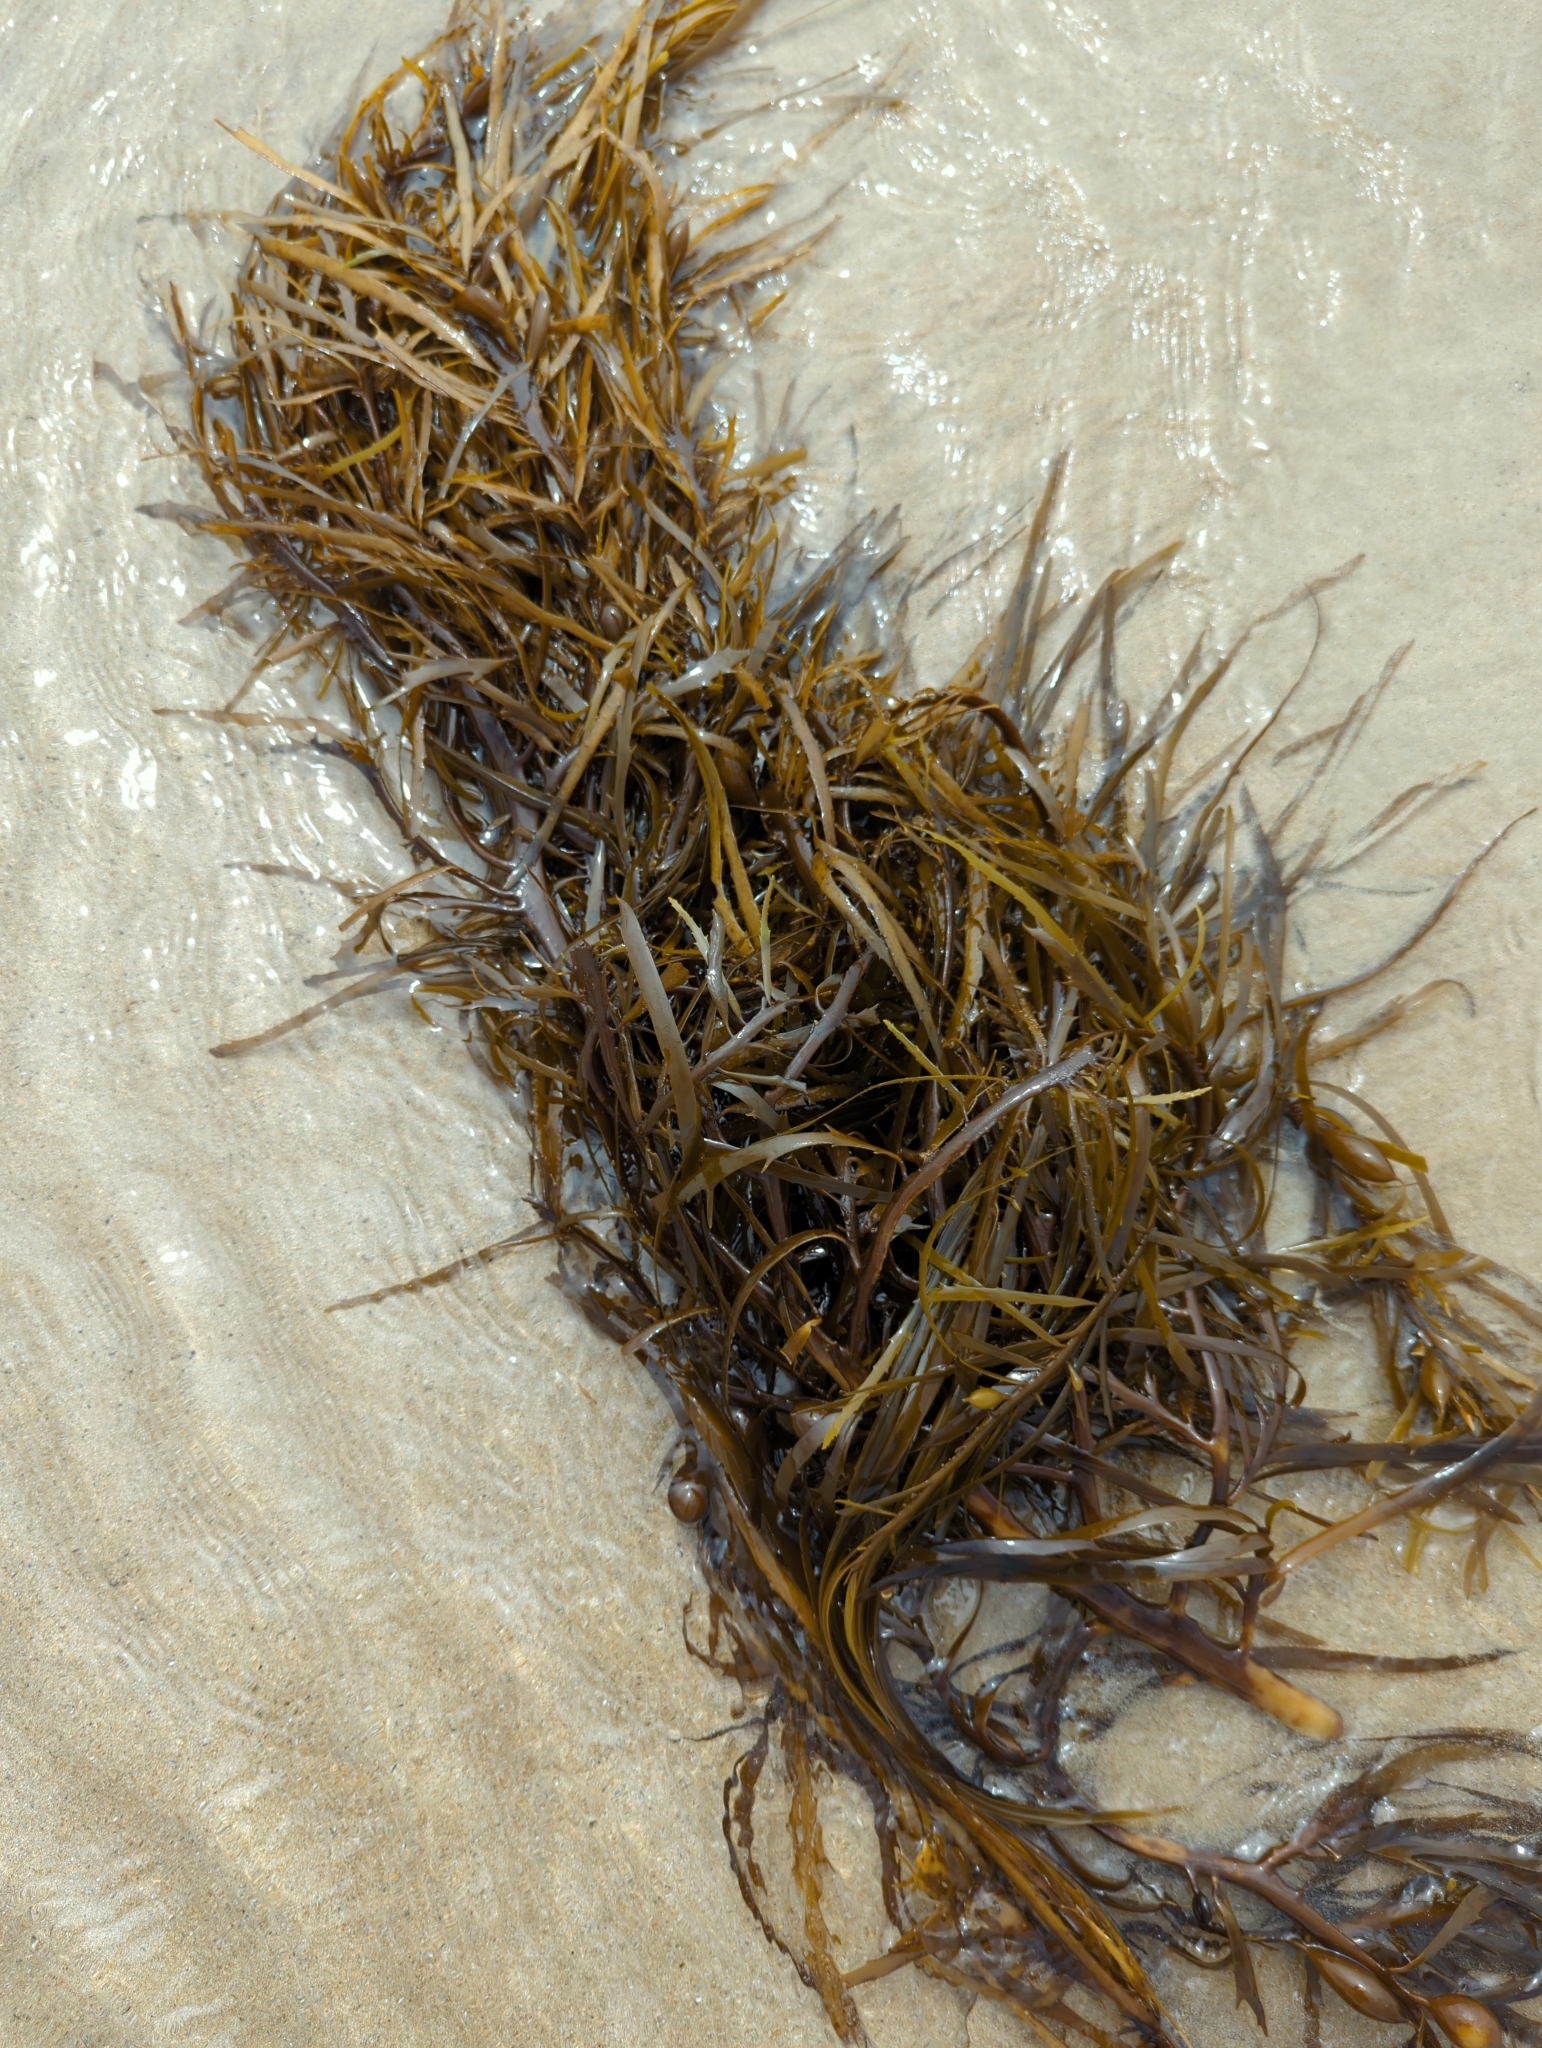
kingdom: Chromista
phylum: Ochrophyta
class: Phaeophyceae
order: Fucales
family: Seirococcaceae
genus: Phyllospora
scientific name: Phyllospora
